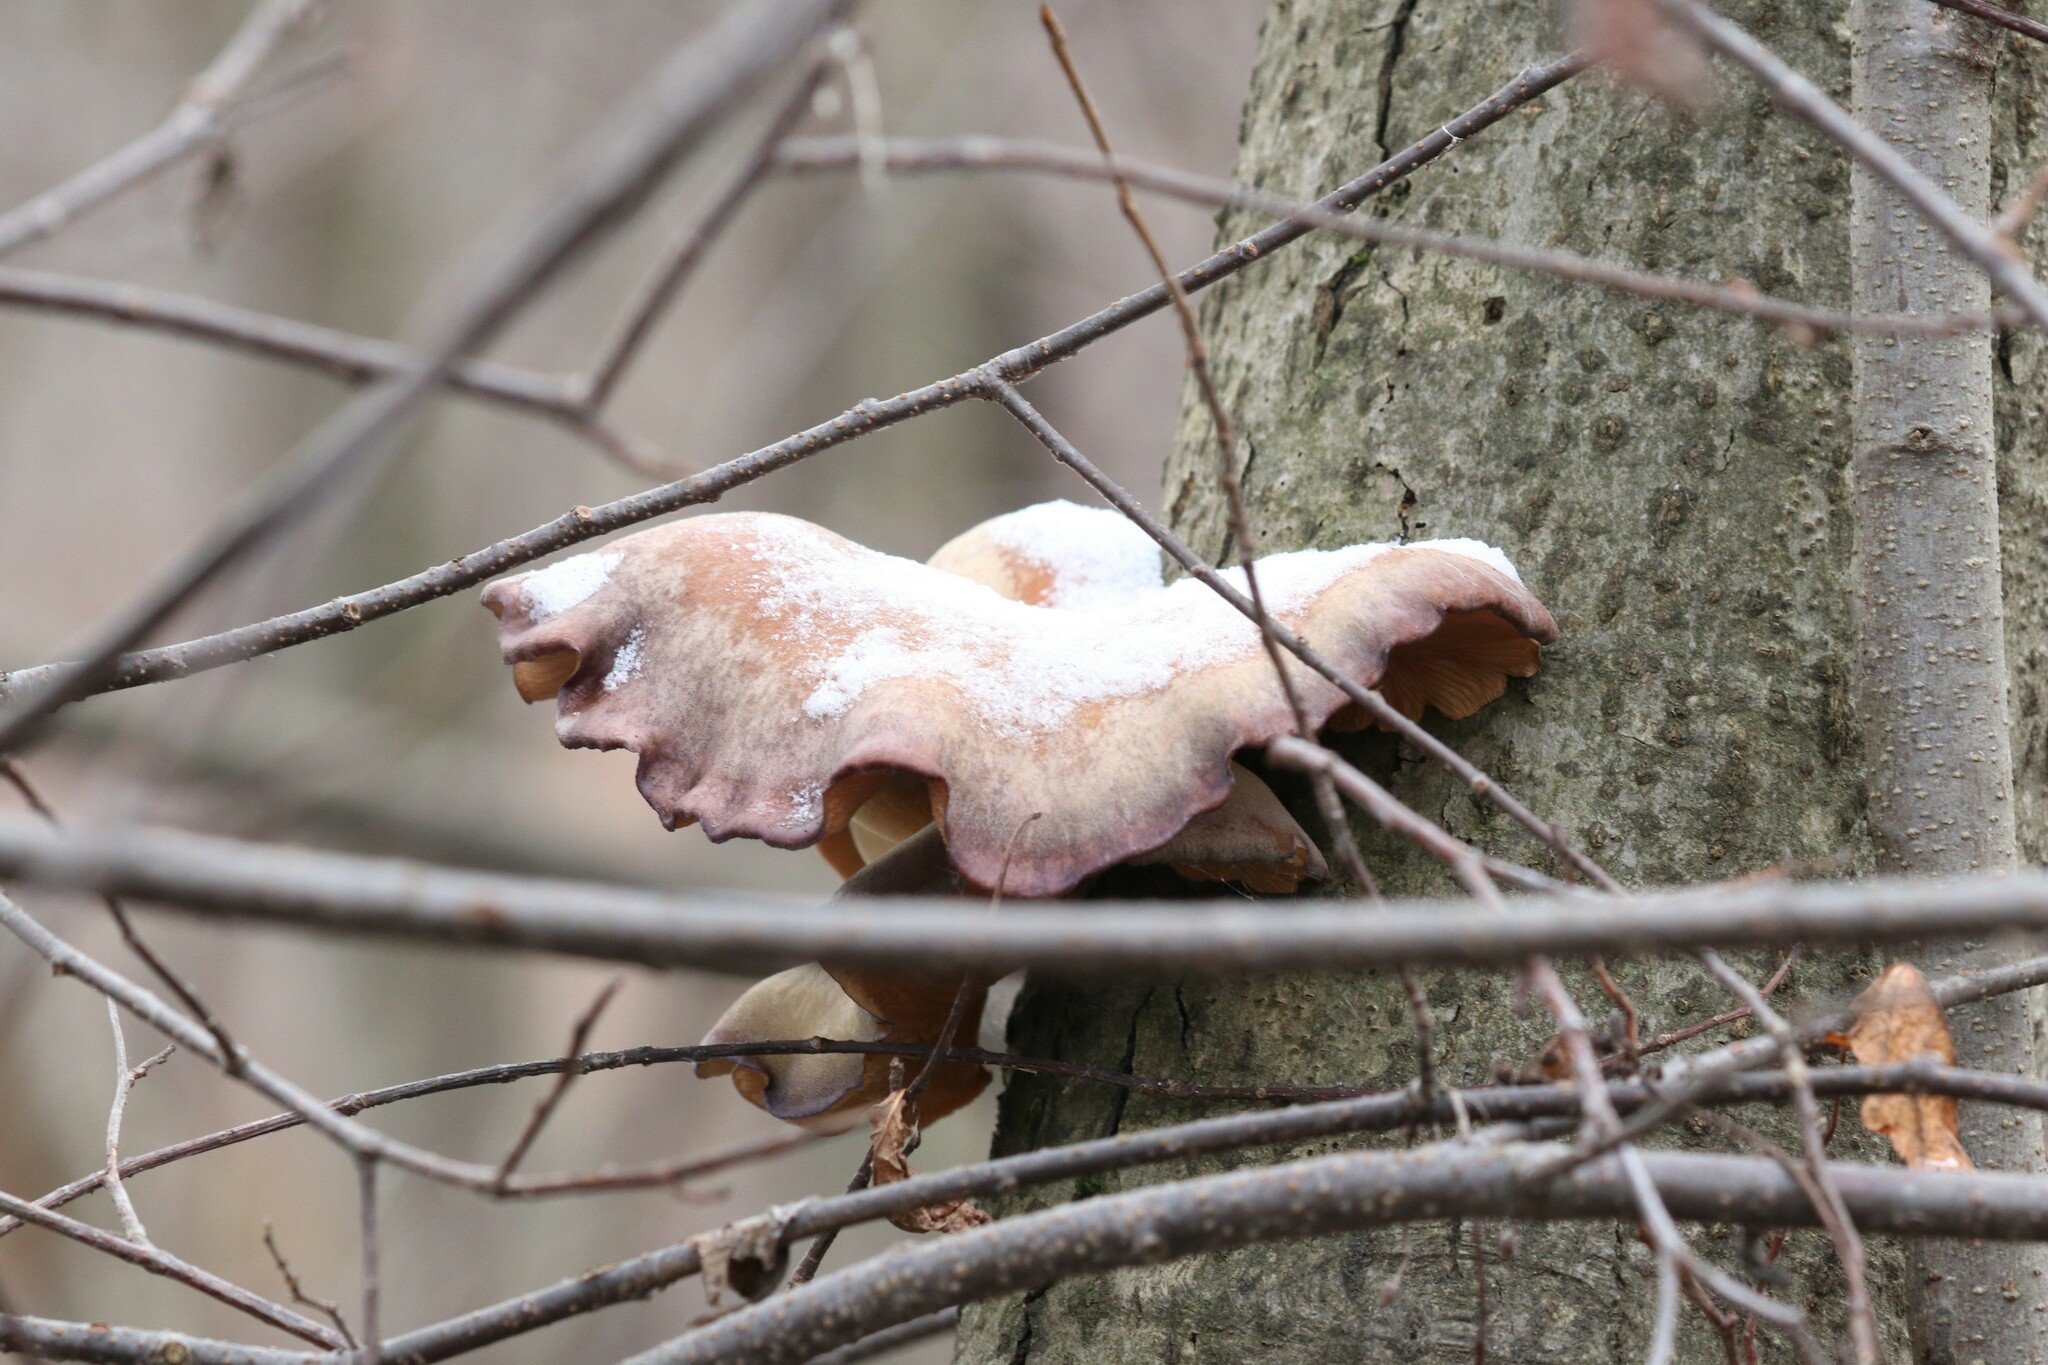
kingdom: Fungi
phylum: Basidiomycota
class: Agaricomycetes
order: Agaricales
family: Sarcomyxaceae
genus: Sarcomyxa
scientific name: Sarcomyxa serotina
